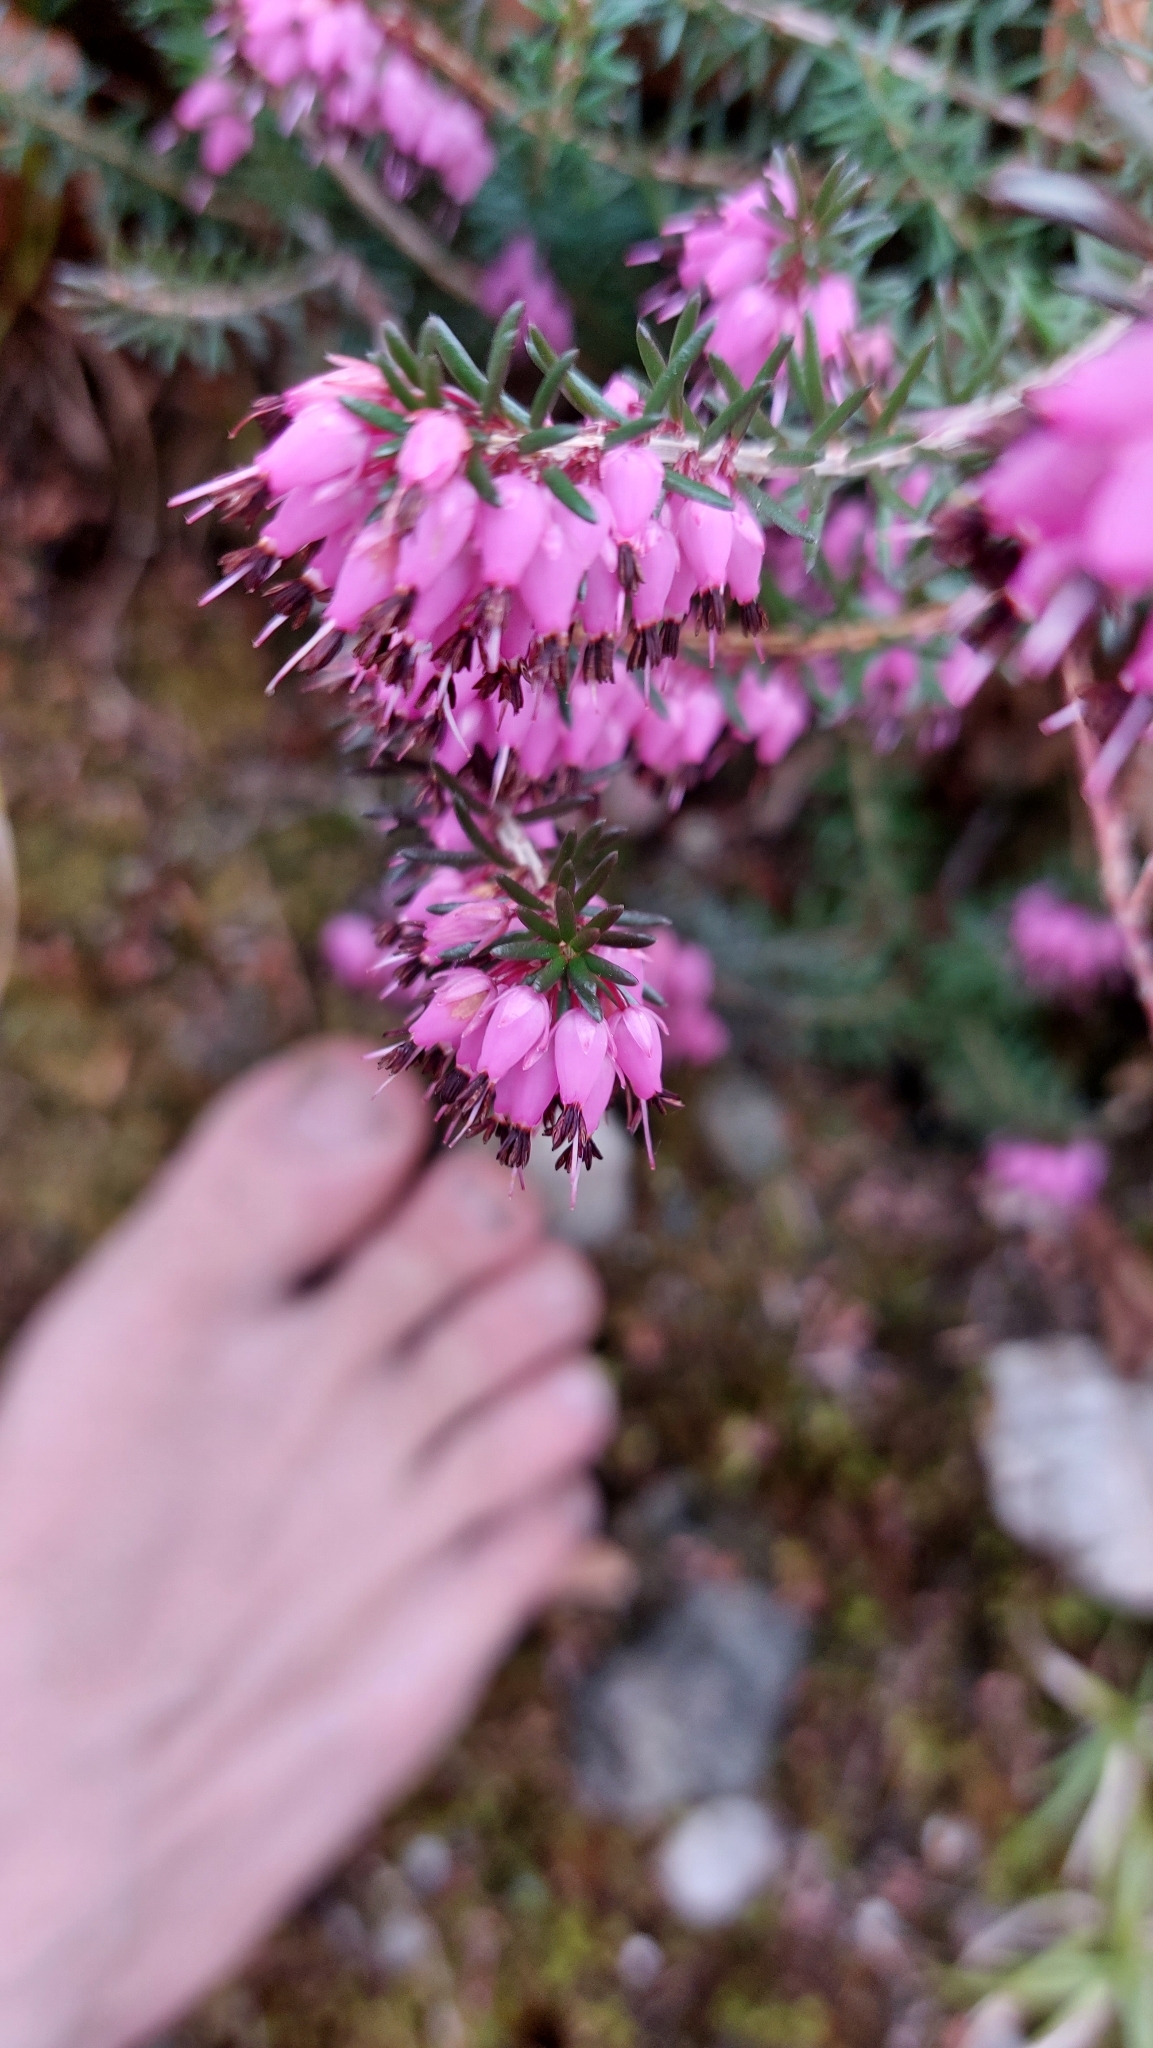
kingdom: Plantae
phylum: Tracheophyta
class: Magnoliopsida
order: Ericales
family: Ericaceae
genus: Erica
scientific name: Erica carnea
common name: Winter heath
